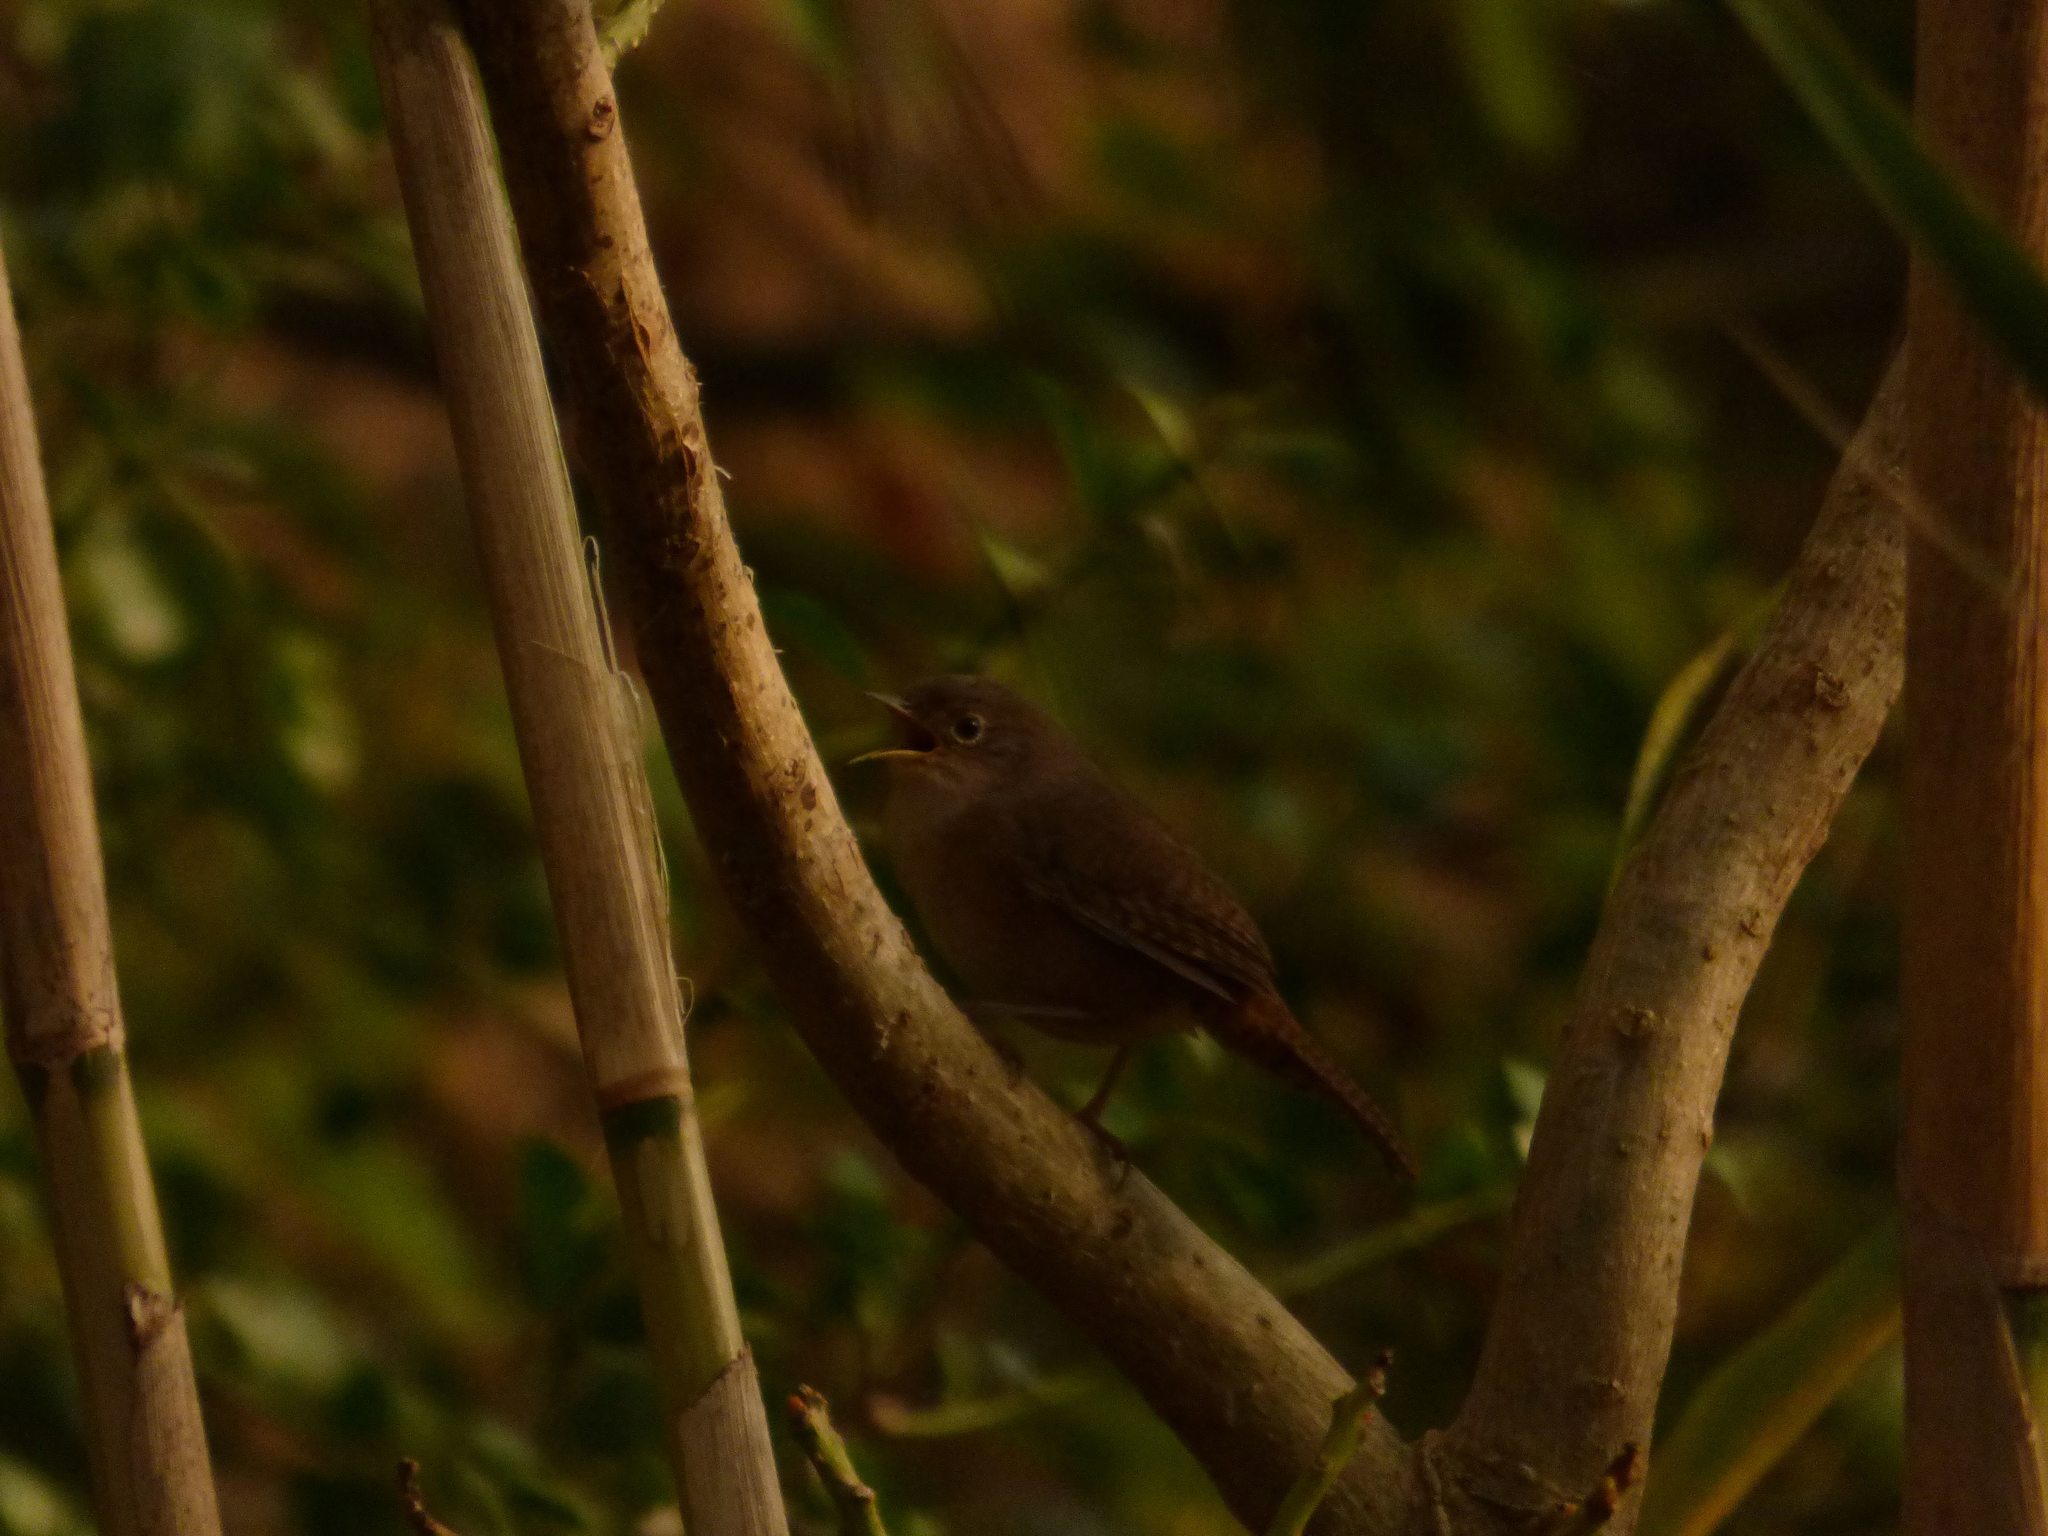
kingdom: Animalia
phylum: Chordata
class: Aves
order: Passeriformes
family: Troglodytidae
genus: Troglodytes
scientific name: Troglodytes aedon
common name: House wren
